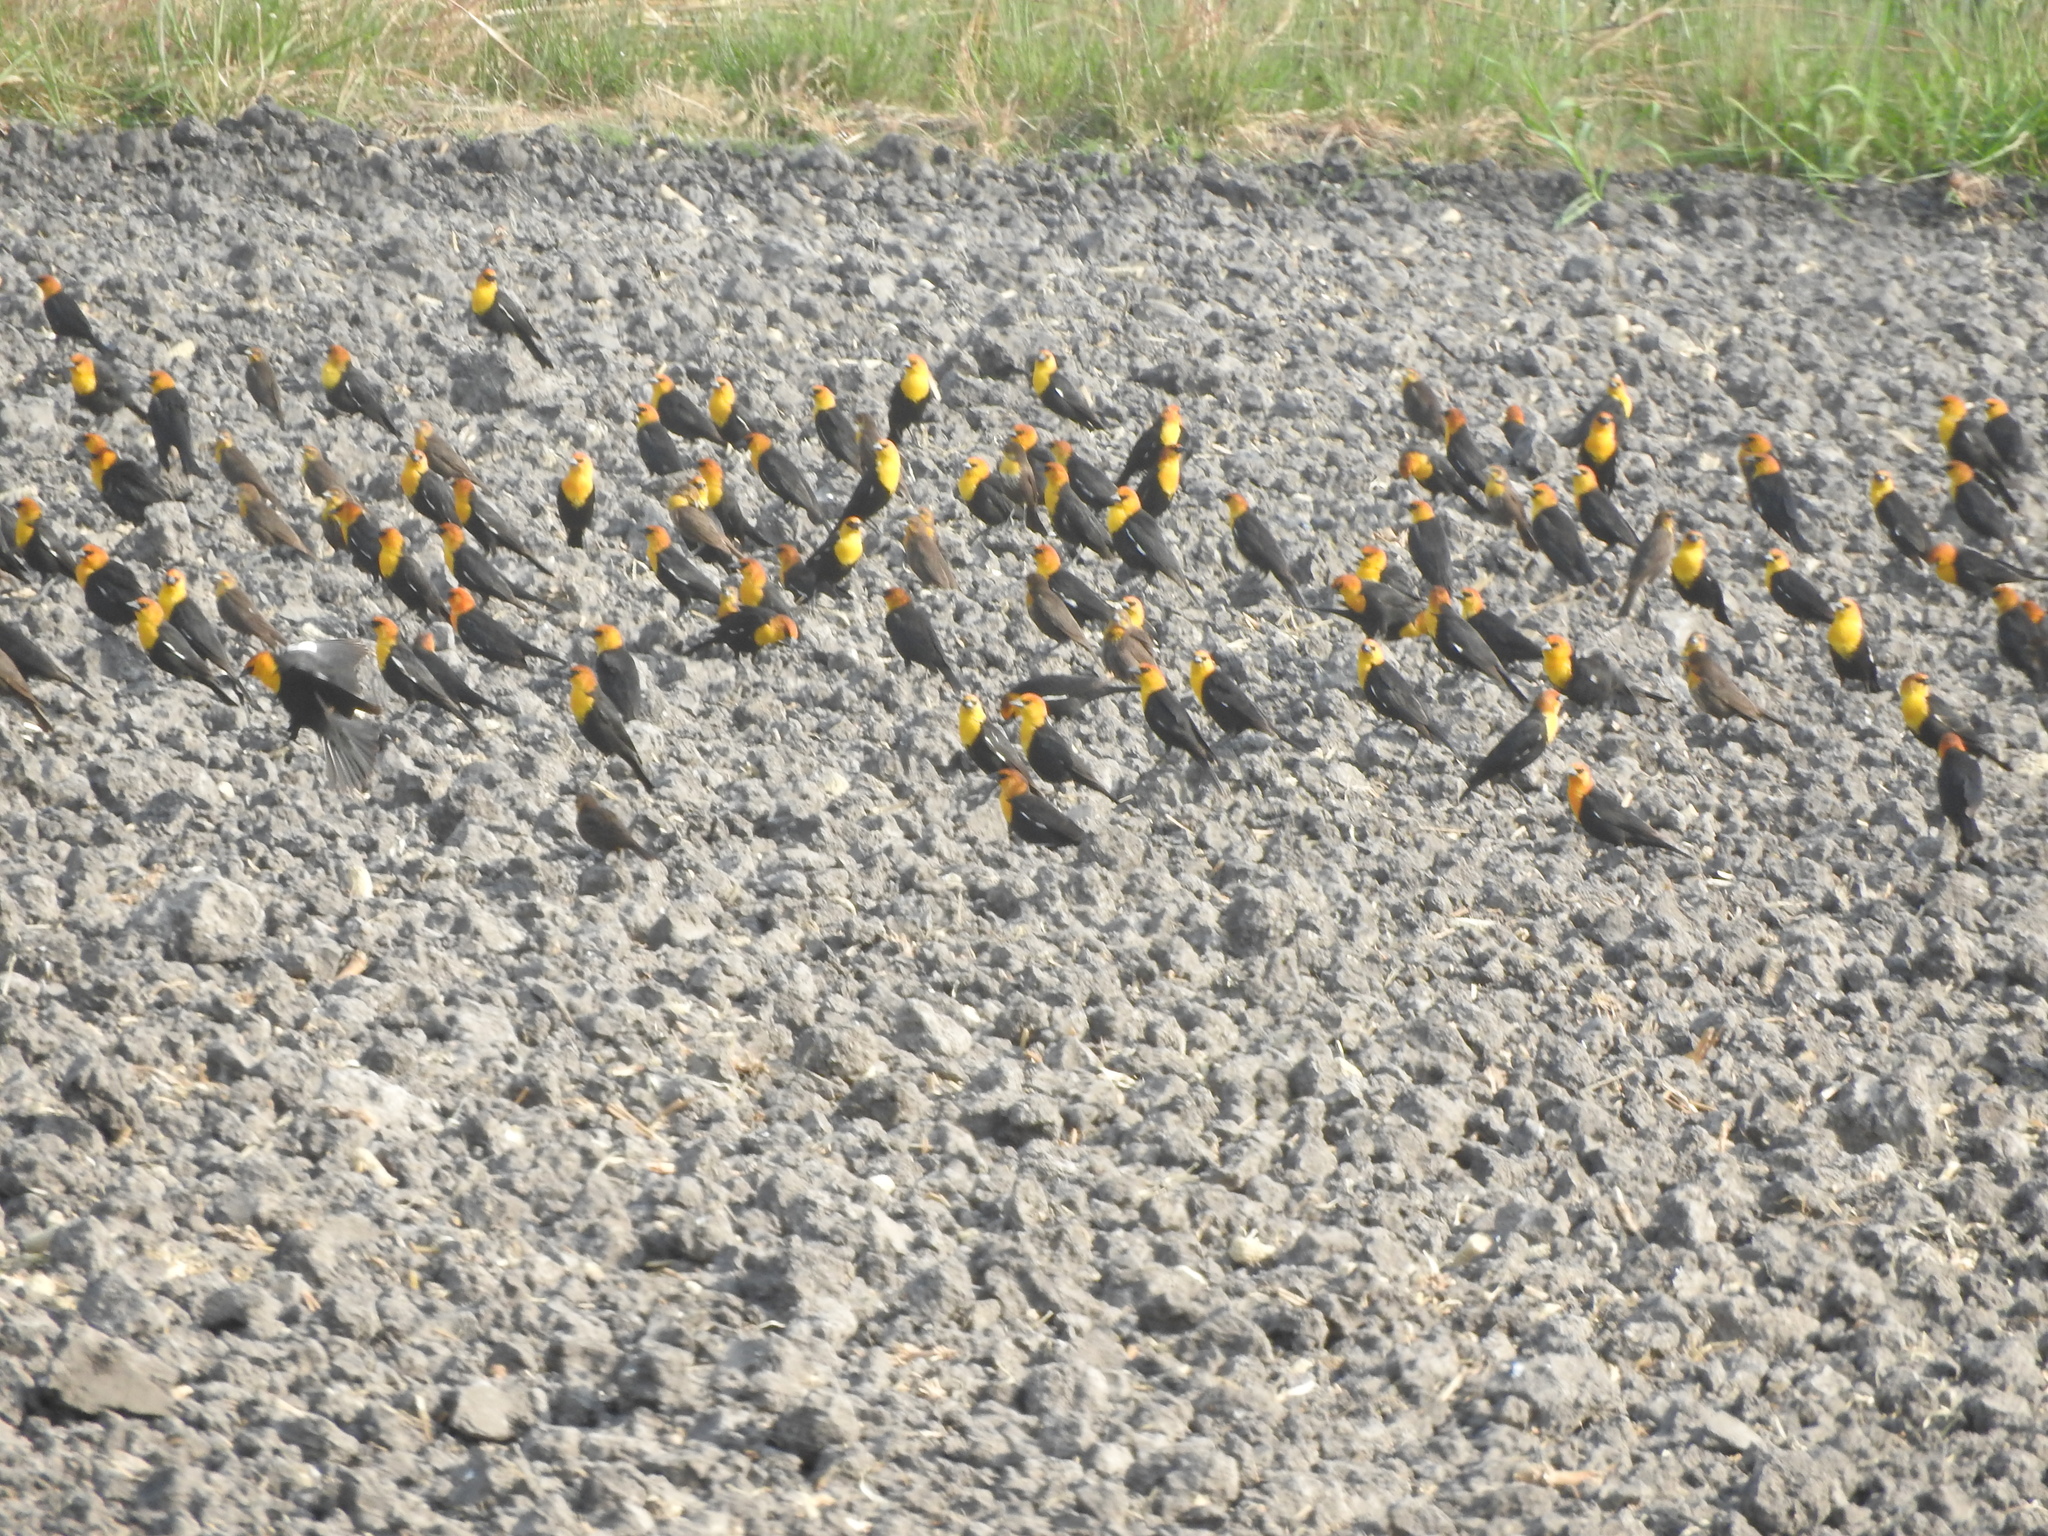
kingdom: Animalia
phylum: Chordata
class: Aves
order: Passeriformes
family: Icteridae
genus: Xanthocephalus
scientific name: Xanthocephalus xanthocephalus
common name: Yellow-headed blackbird
